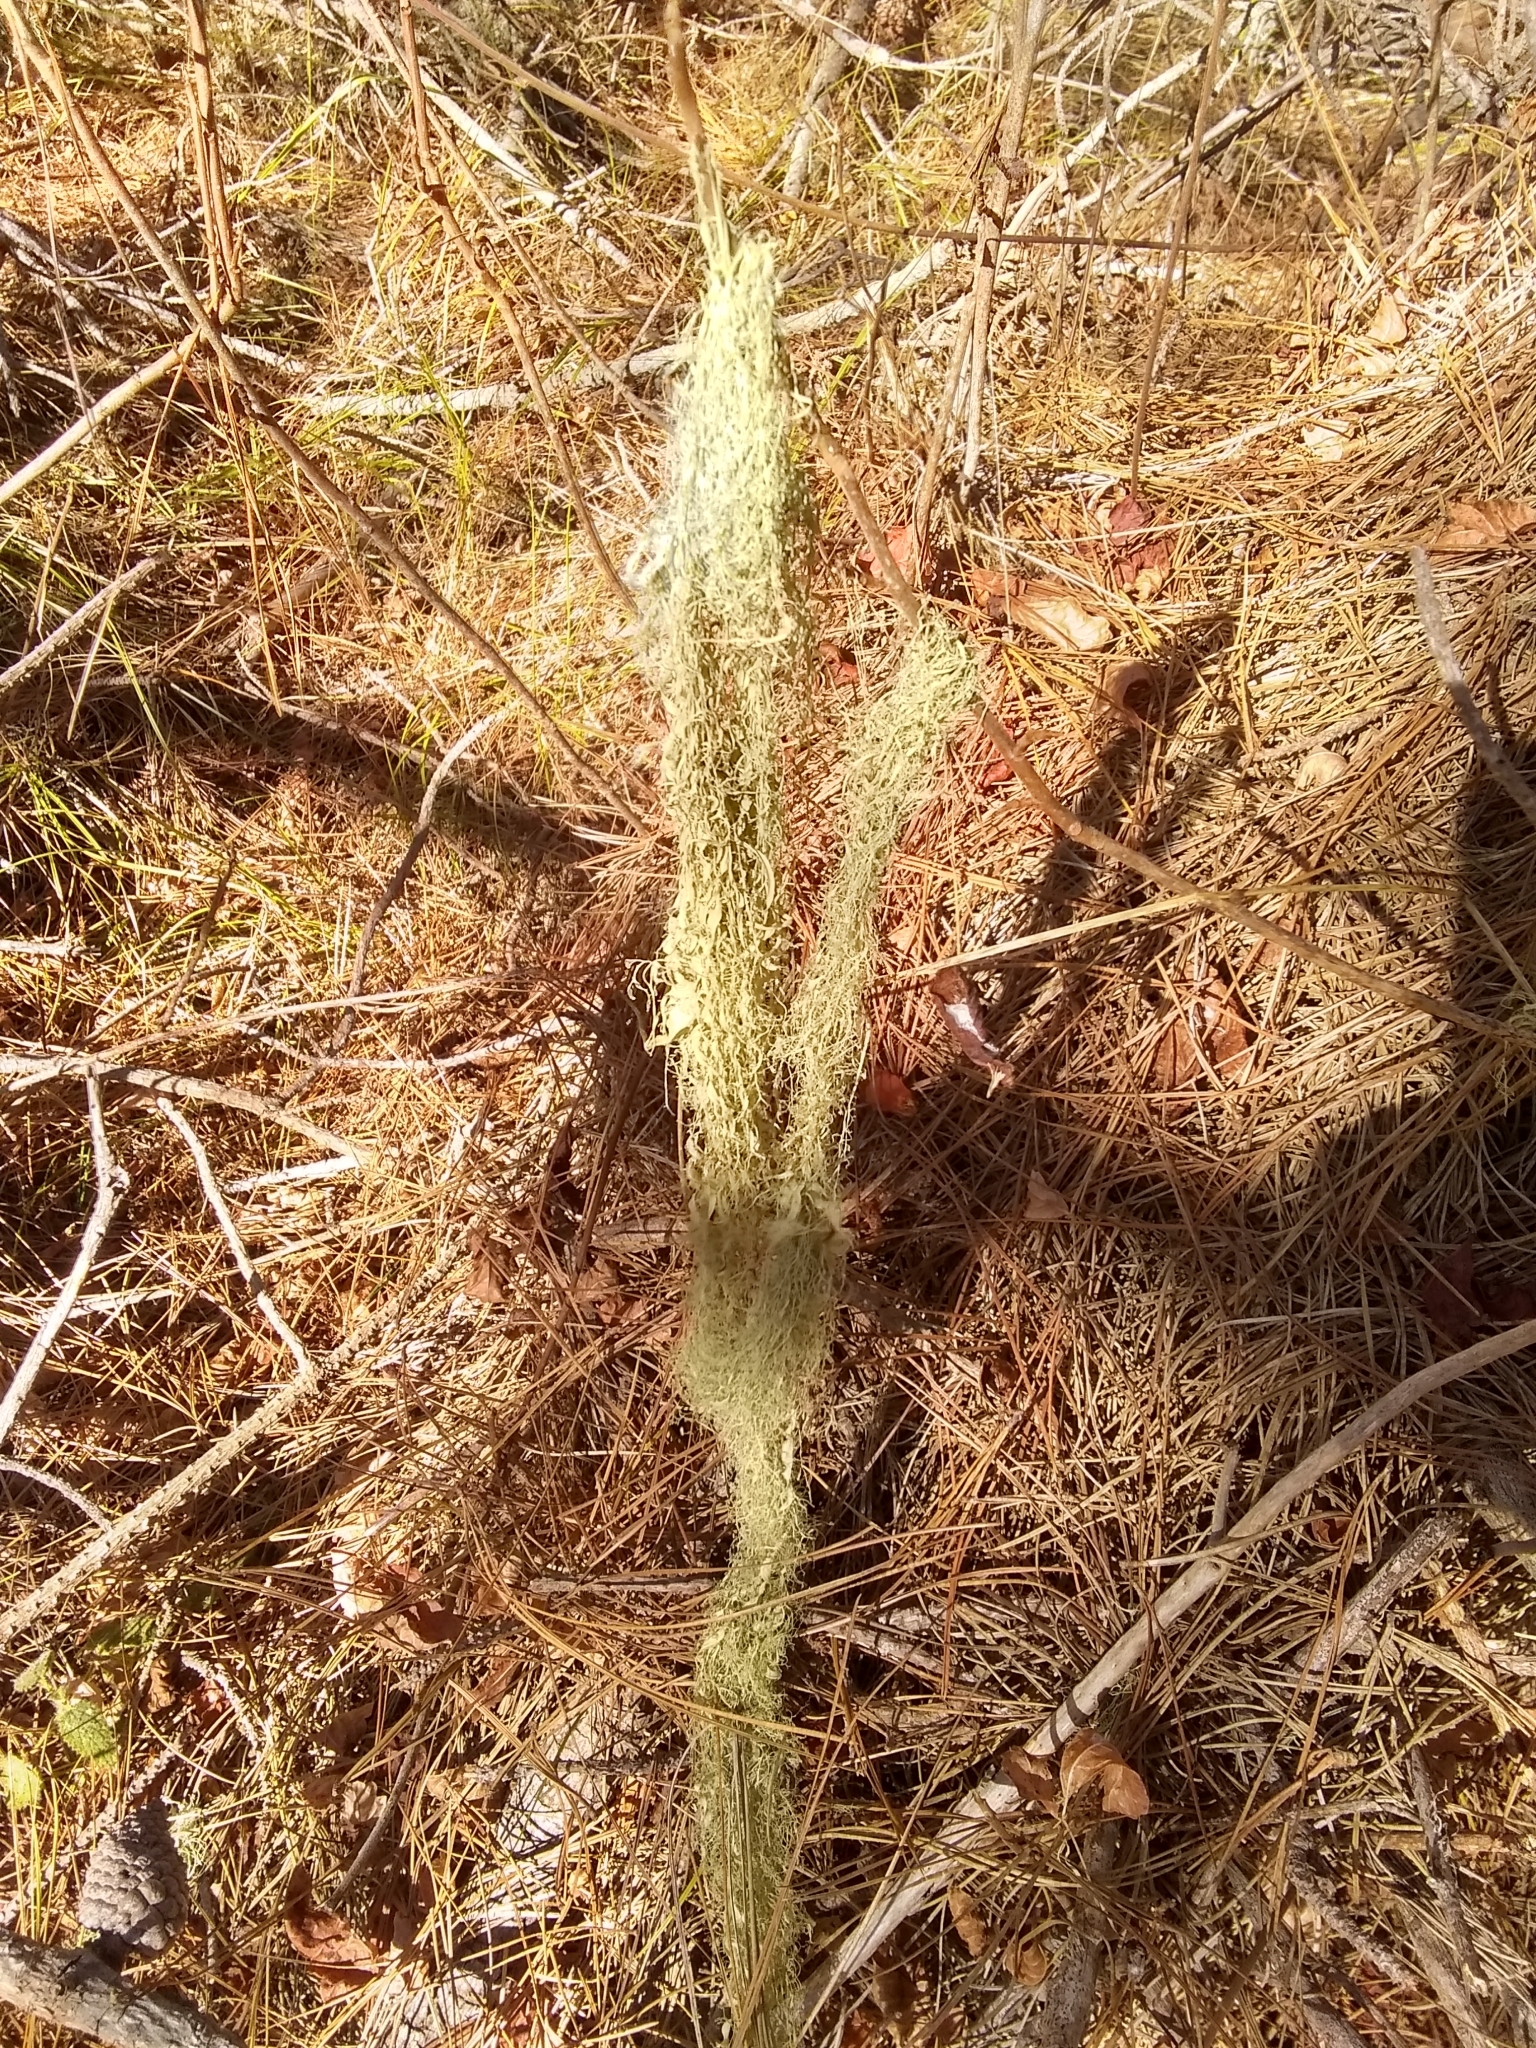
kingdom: Fungi
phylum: Ascomycota
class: Lecanoromycetes
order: Lecanorales
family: Ramalinaceae
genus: Ramalina
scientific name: Ramalina menziesii
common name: Lace lichen
